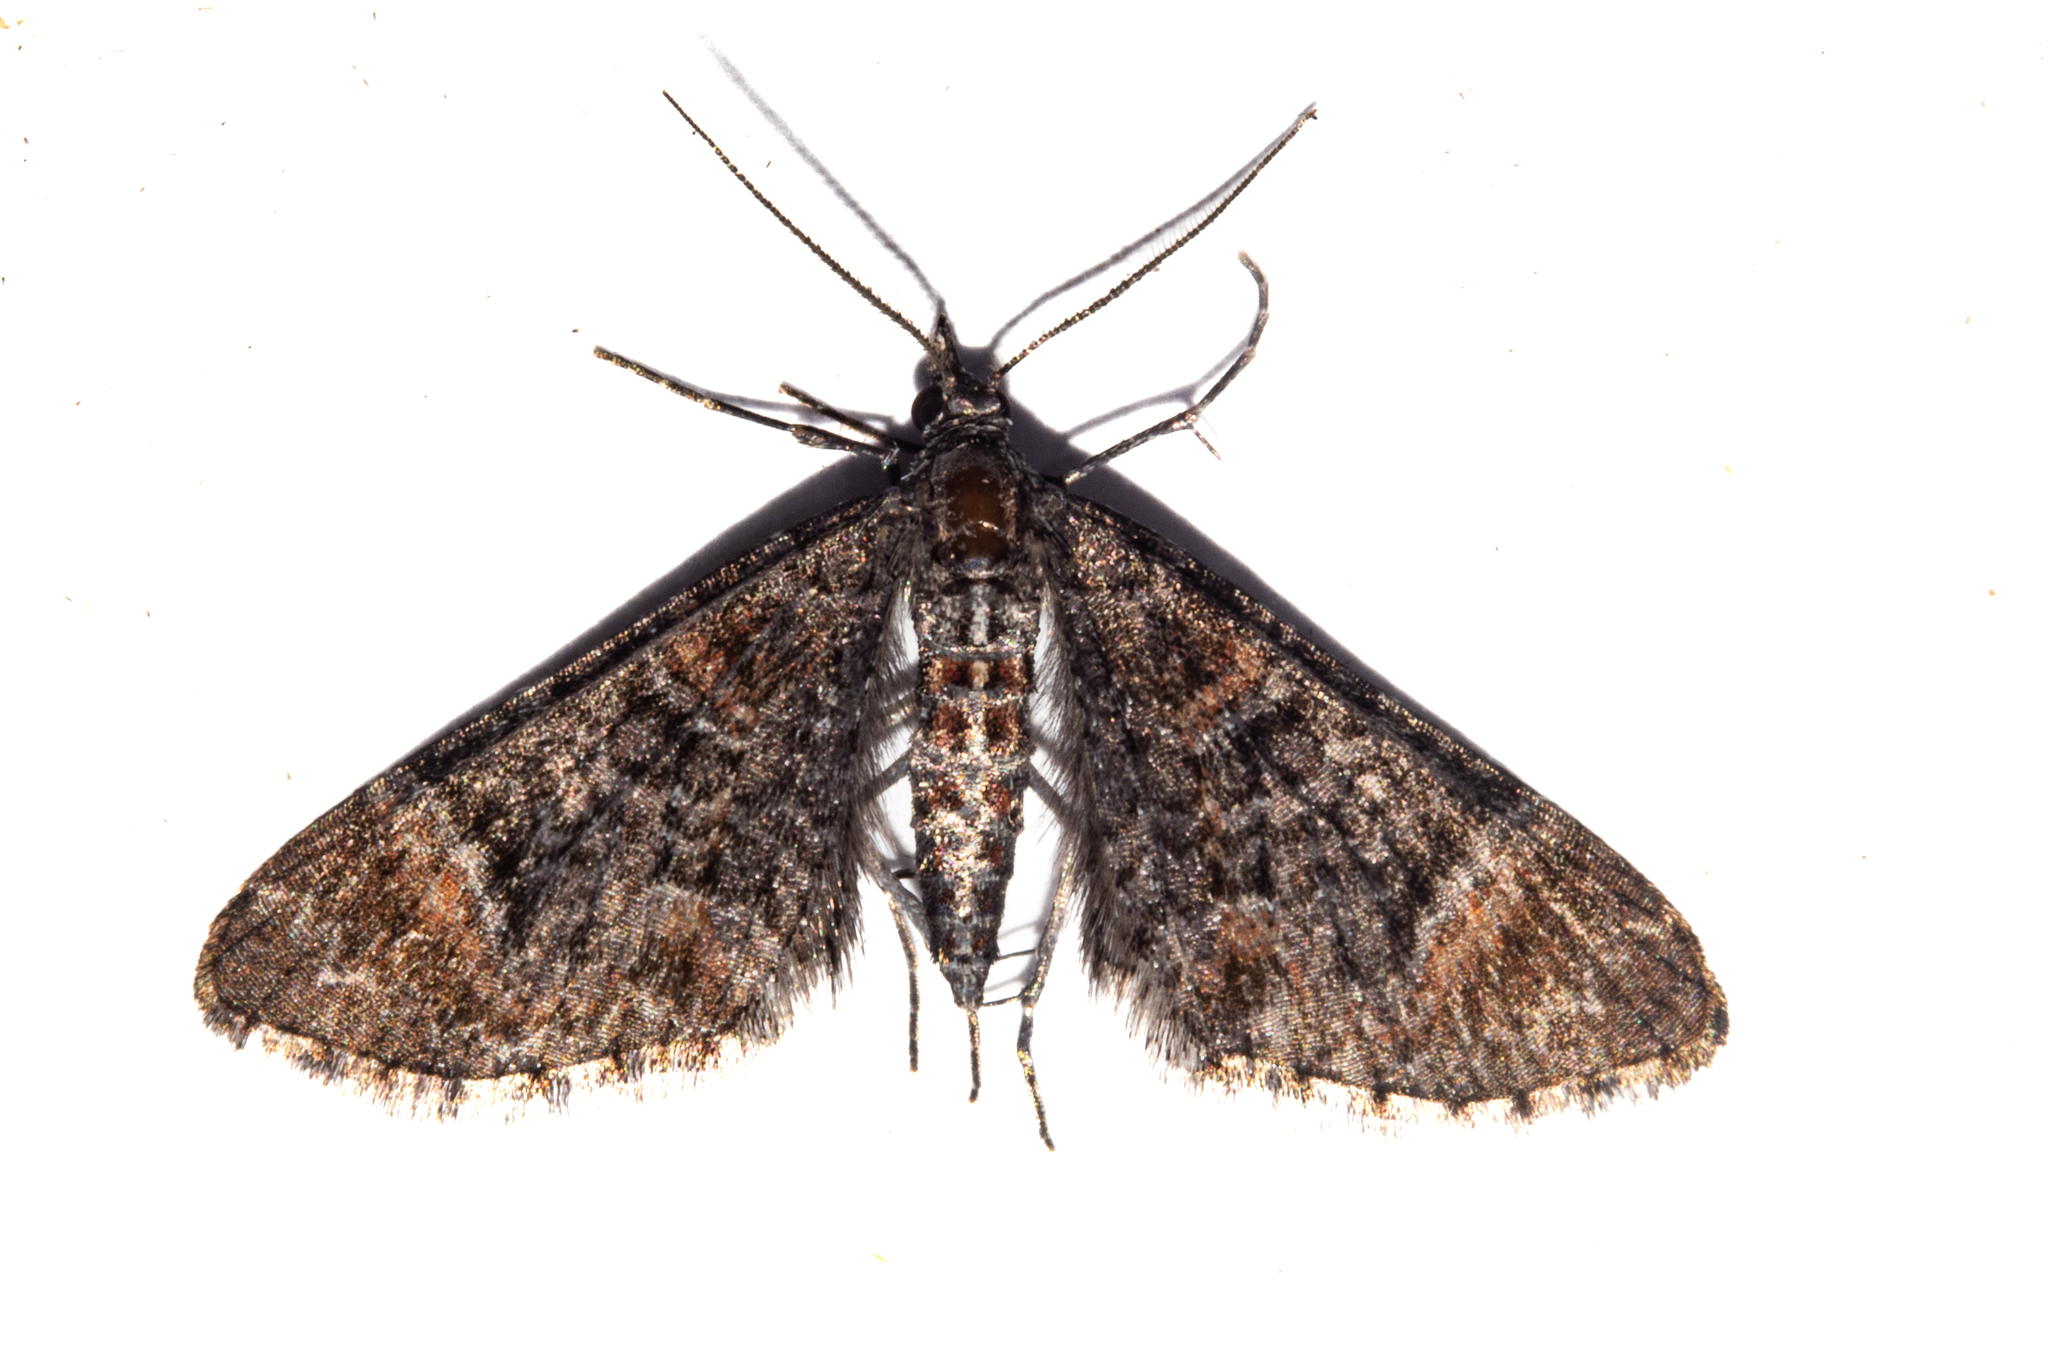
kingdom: Animalia
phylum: Arthropoda
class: Insecta
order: Lepidoptera
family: Geometridae
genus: Pasiphila
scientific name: Pasiphila erratica
